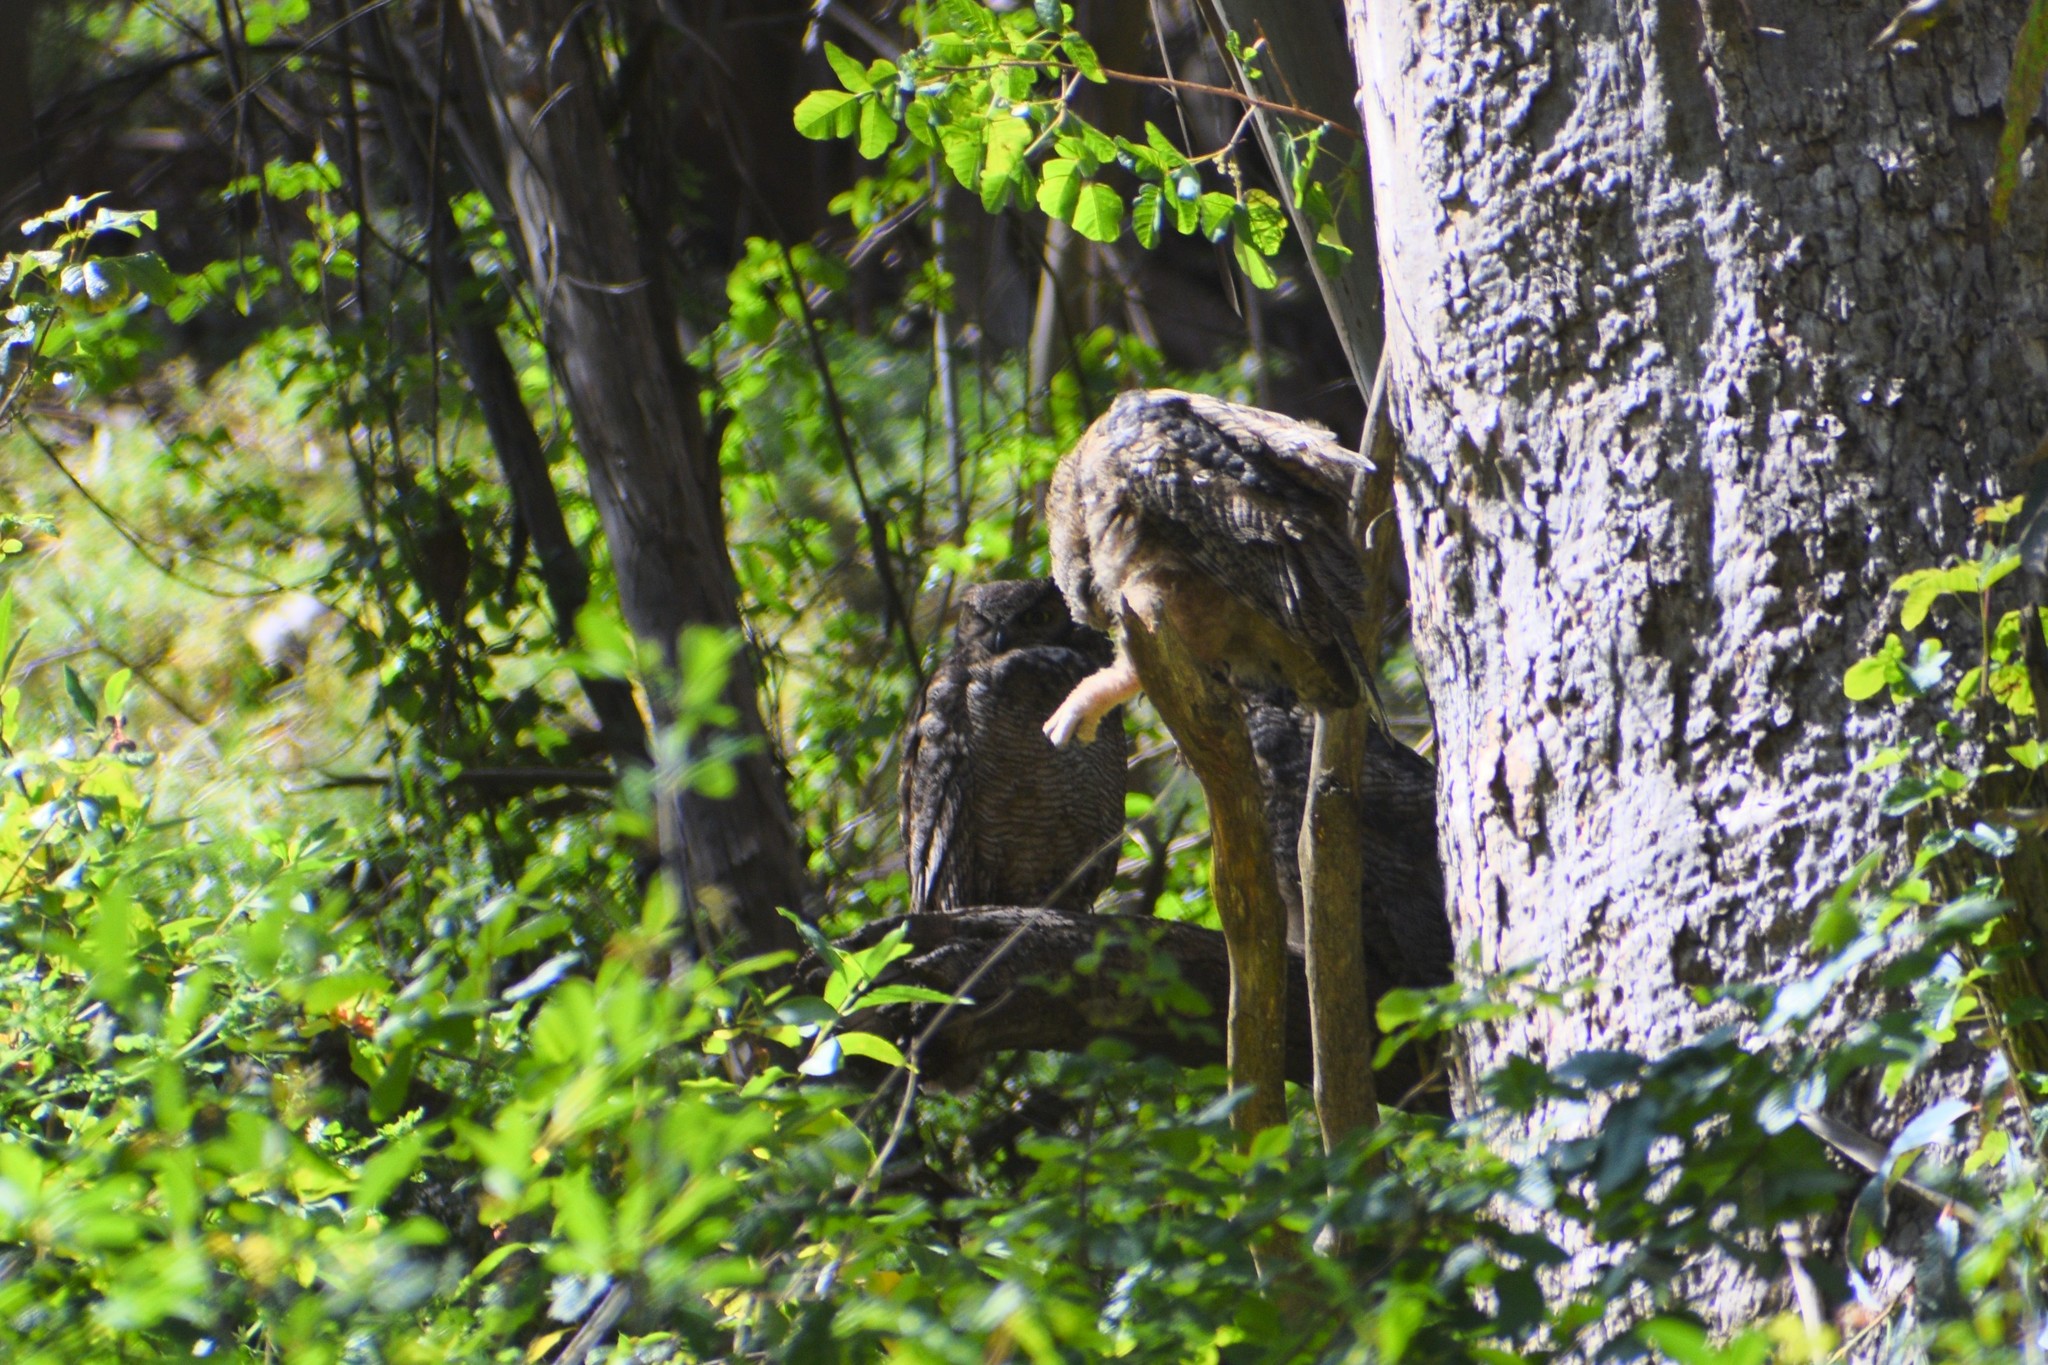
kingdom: Animalia
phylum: Chordata
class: Aves
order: Strigiformes
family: Strigidae
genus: Bubo
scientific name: Bubo virginianus
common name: Great horned owl
